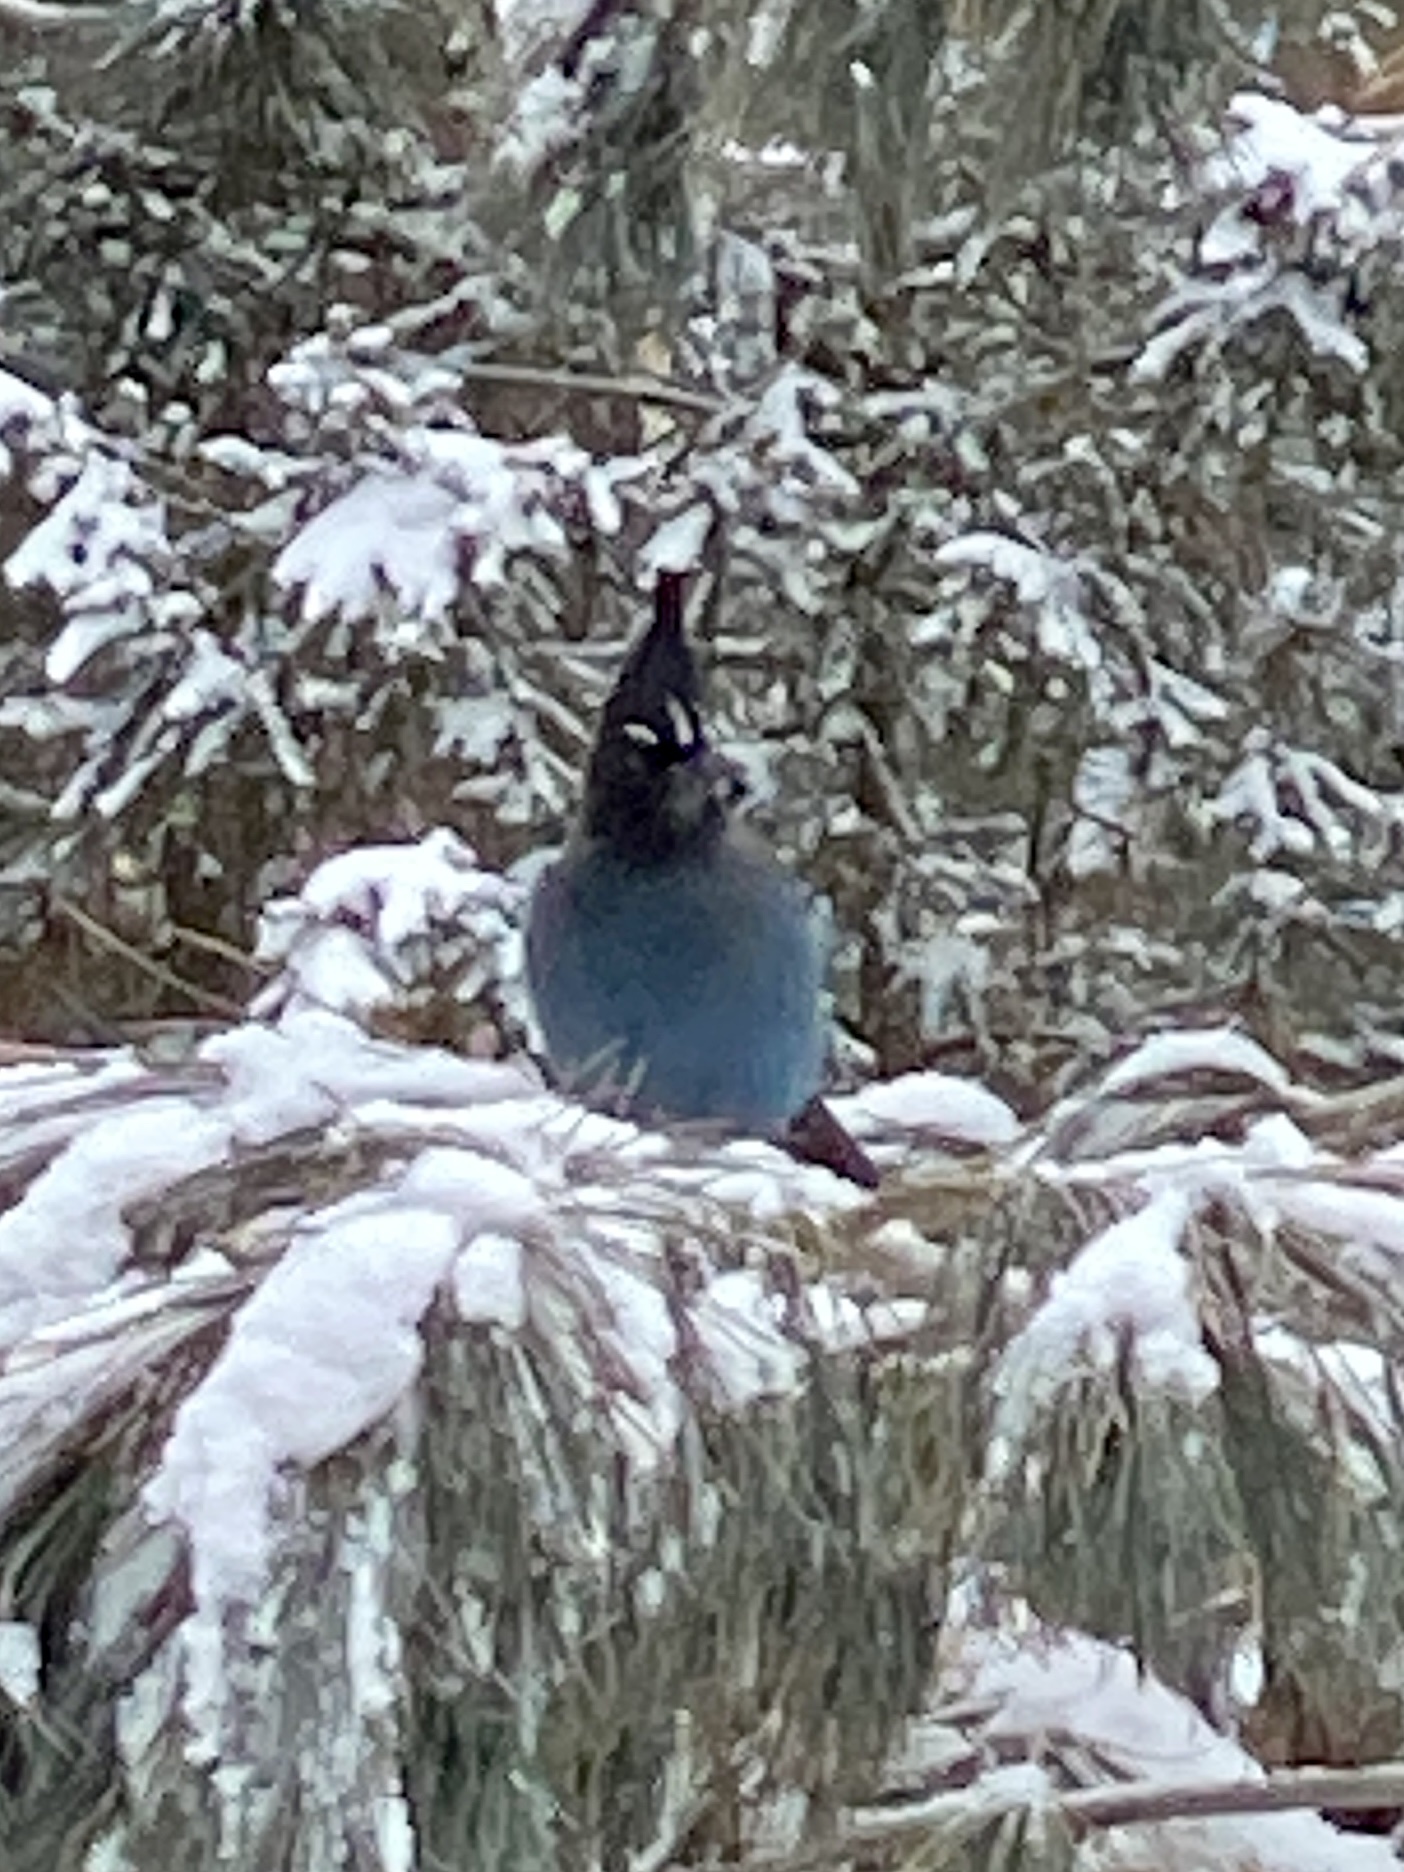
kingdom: Animalia
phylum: Chordata
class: Aves
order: Passeriformes
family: Corvidae
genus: Cyanocitta
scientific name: Cyanocitta stelleri
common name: Steller's jay
